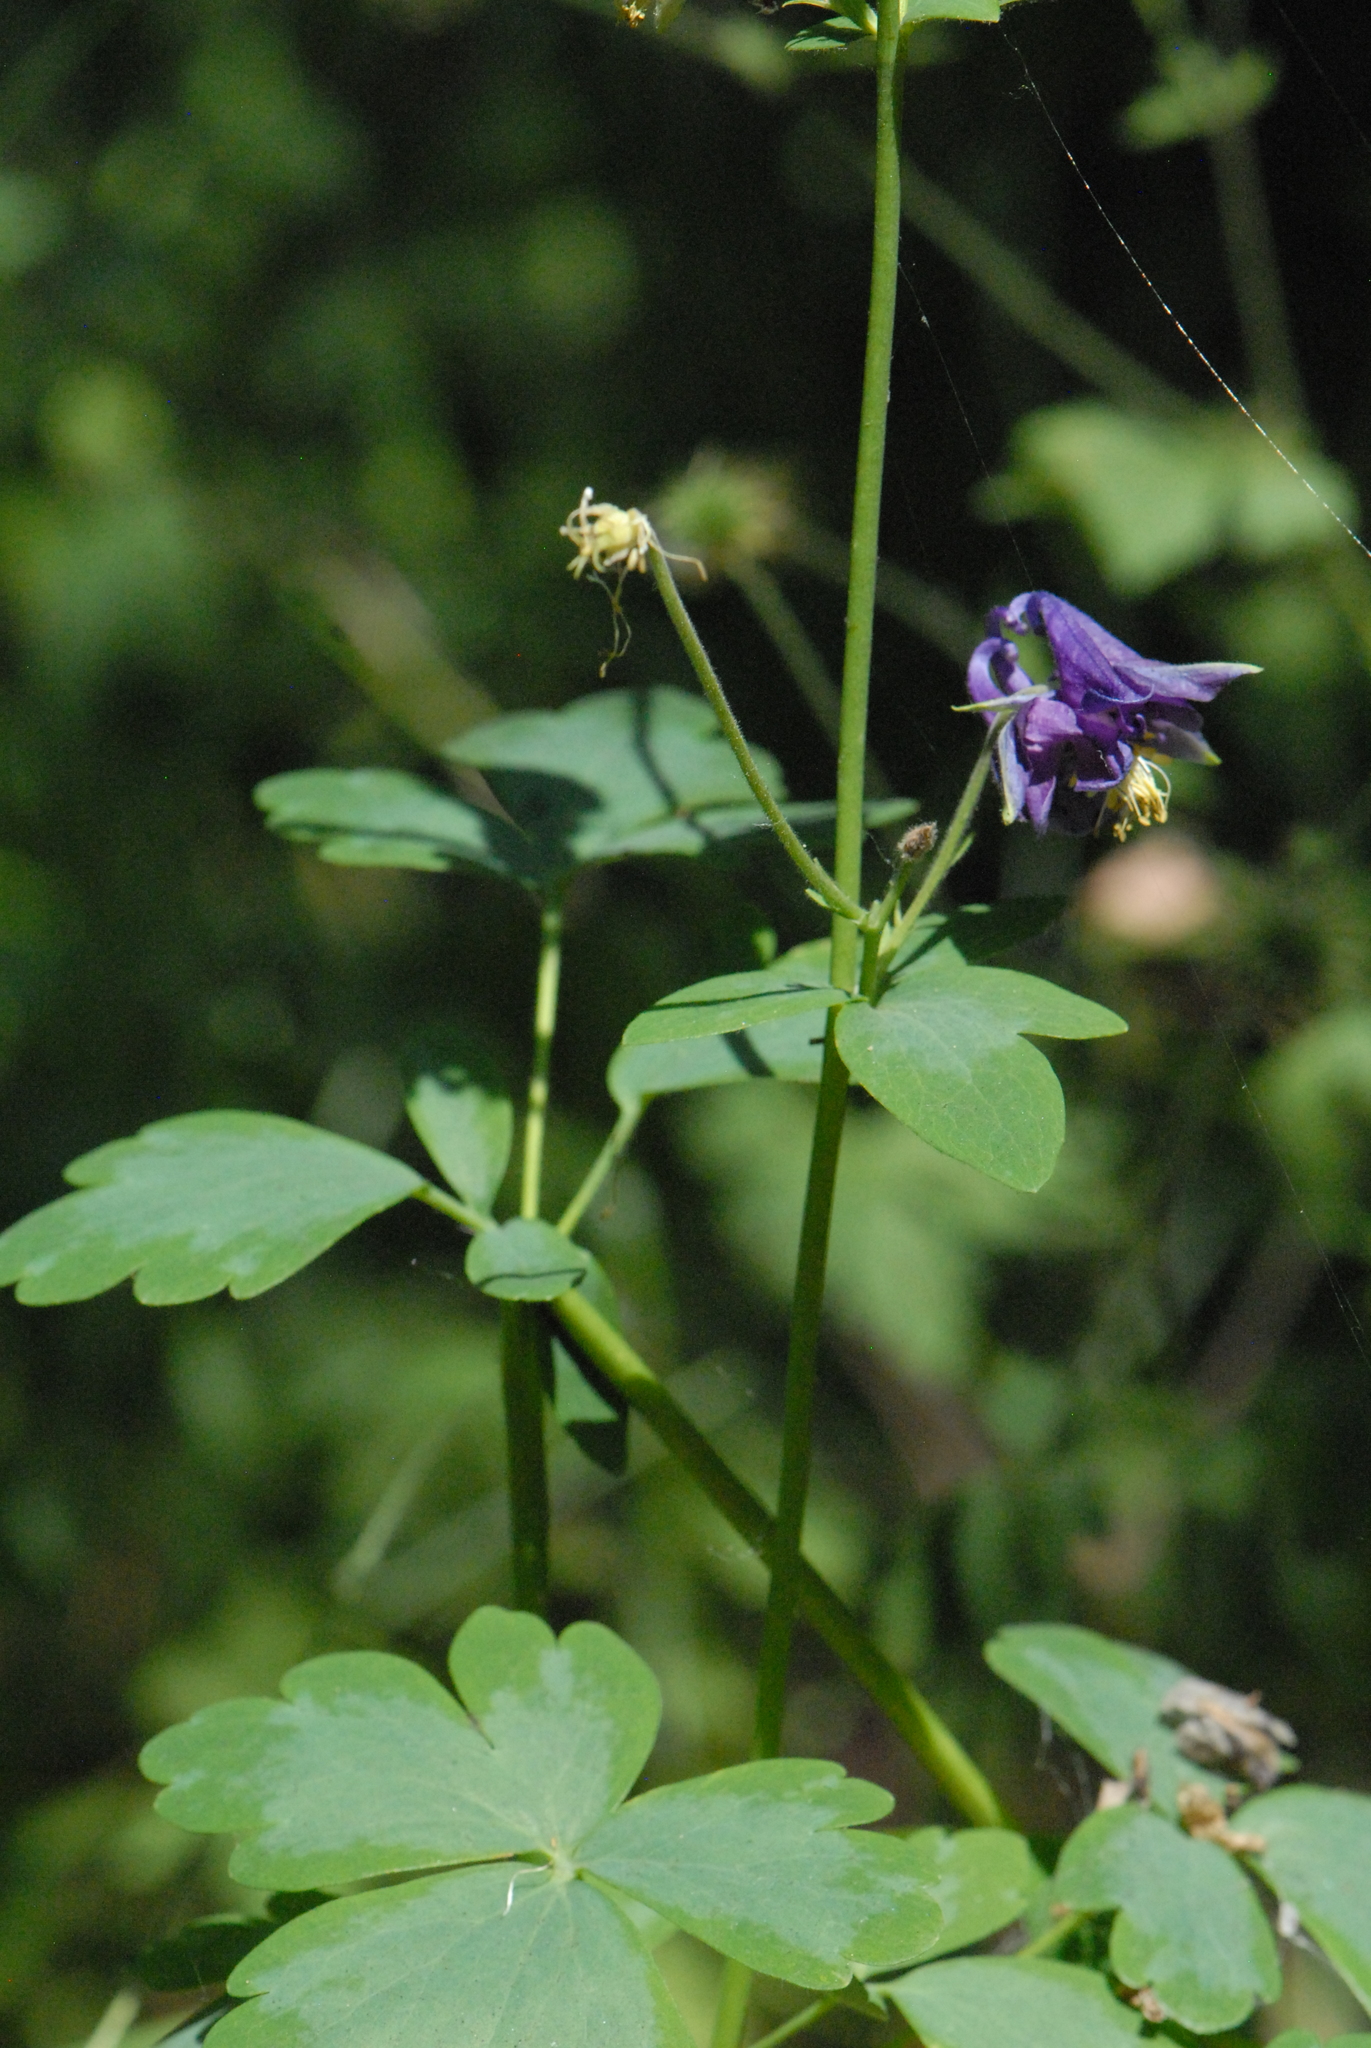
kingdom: Plantae
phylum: Tracheophyta
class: Magnoliopsida
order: Ranunculales
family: Ranunculaceae
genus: Aquilegia
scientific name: Aquilegia vulgaris
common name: Columbine
